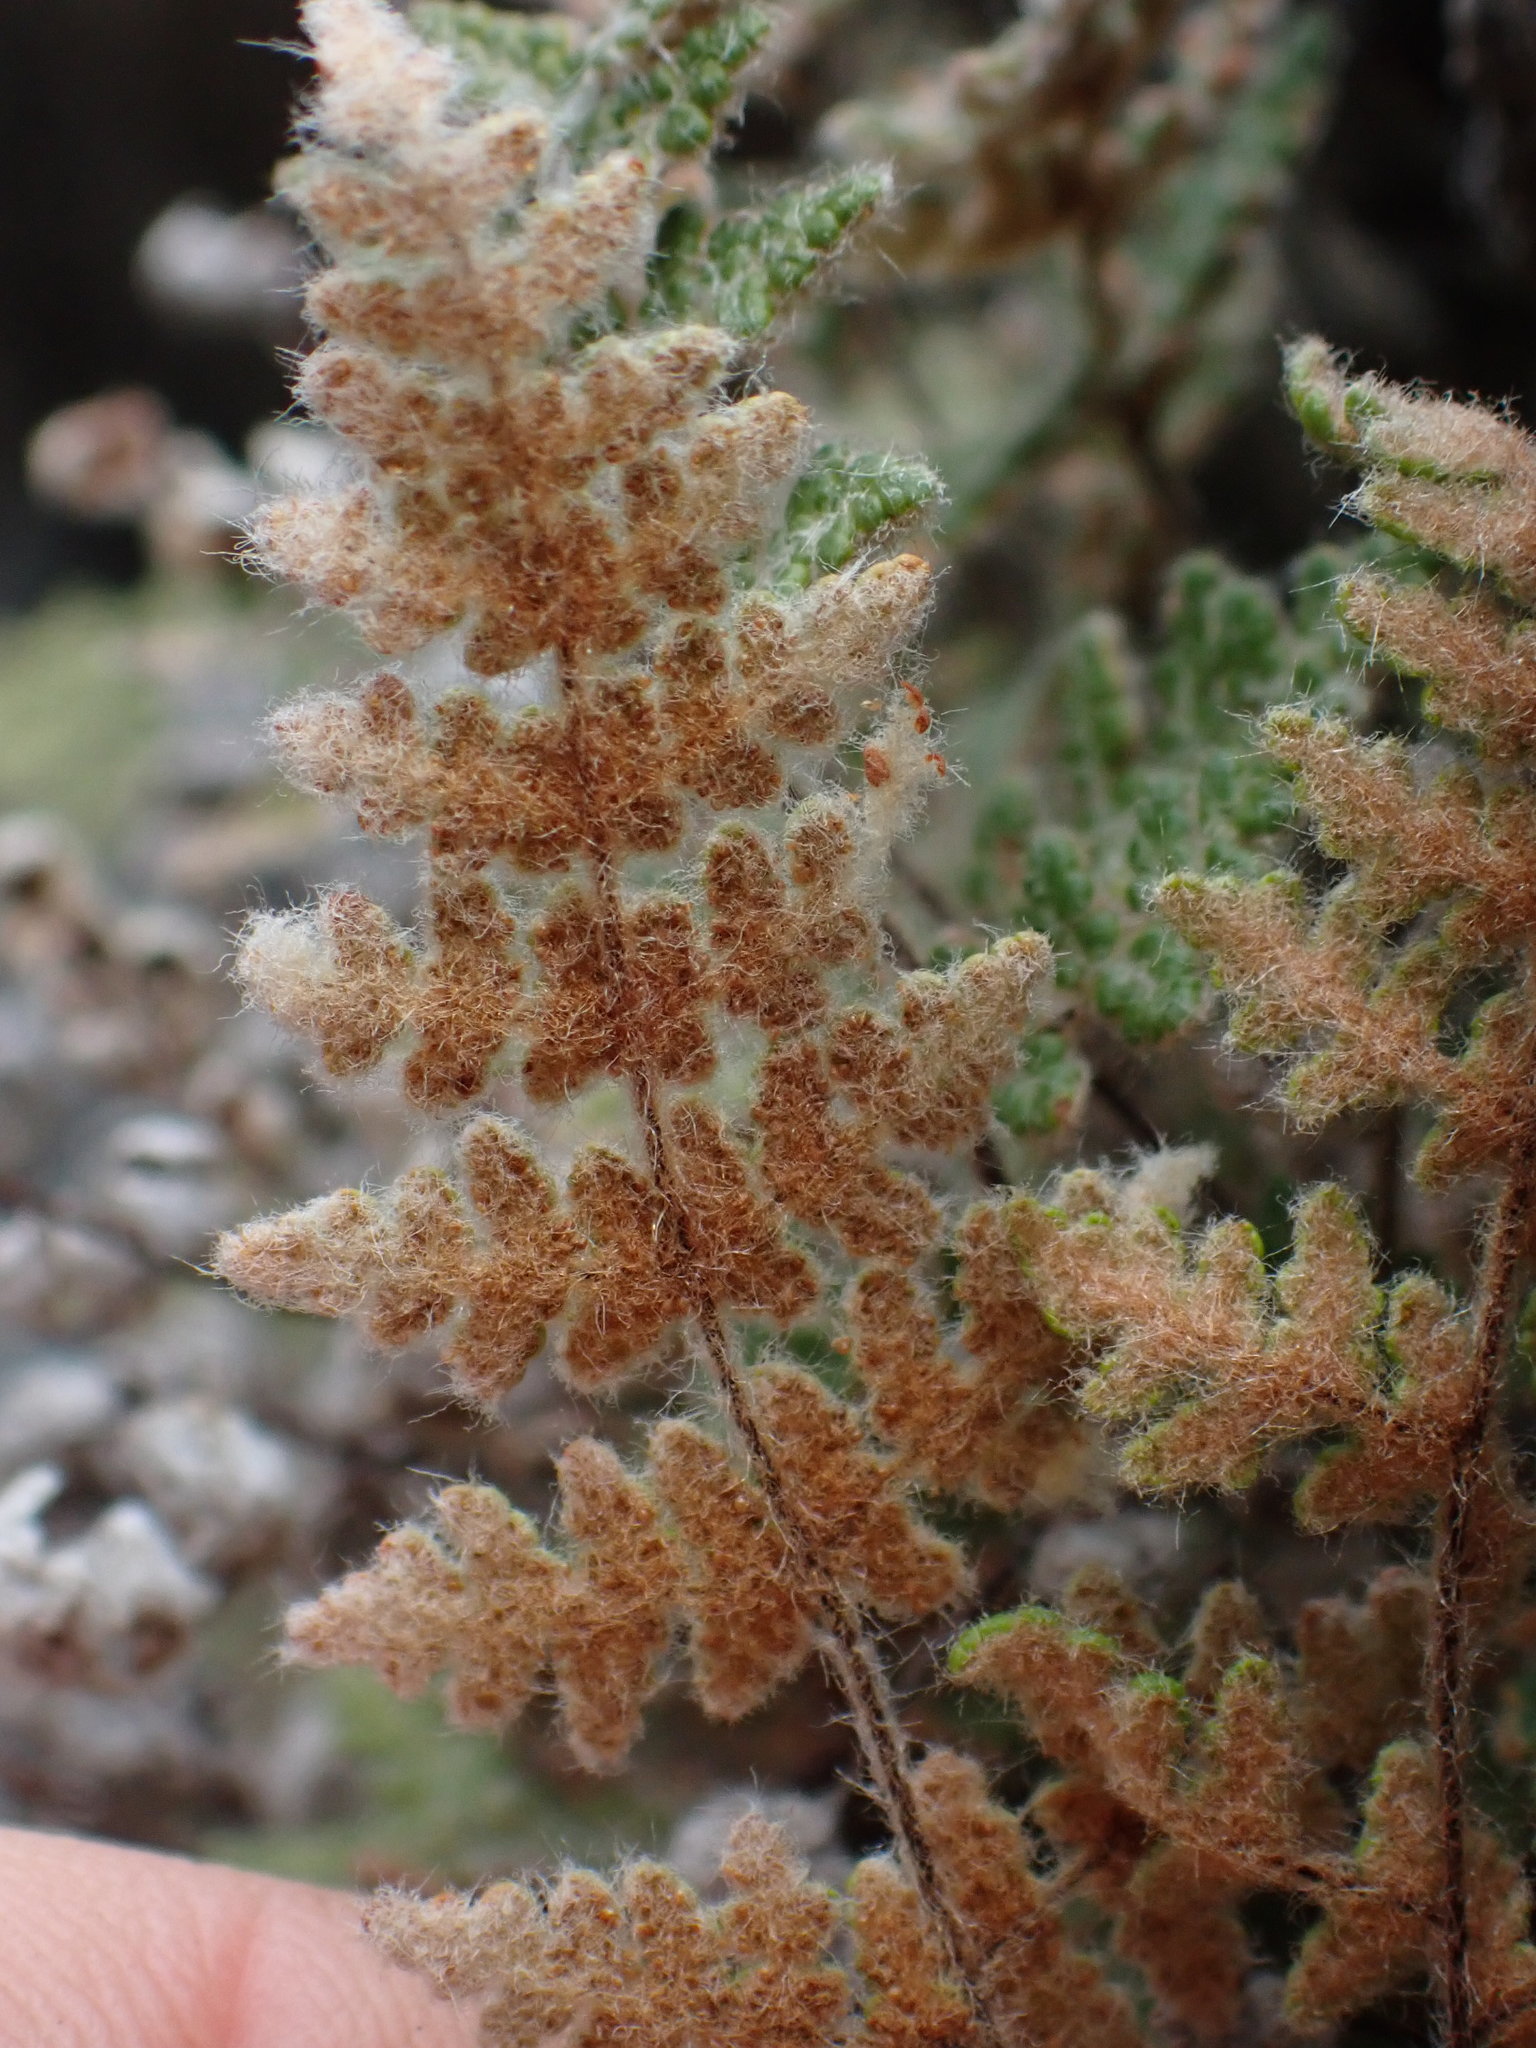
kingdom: Plantae
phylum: Tracheophyta
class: Polypodiopsida
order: Polypodiales
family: Pteridaceae
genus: Myriopteris
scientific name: Myriopteris gracilis
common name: Fee's lip fern
